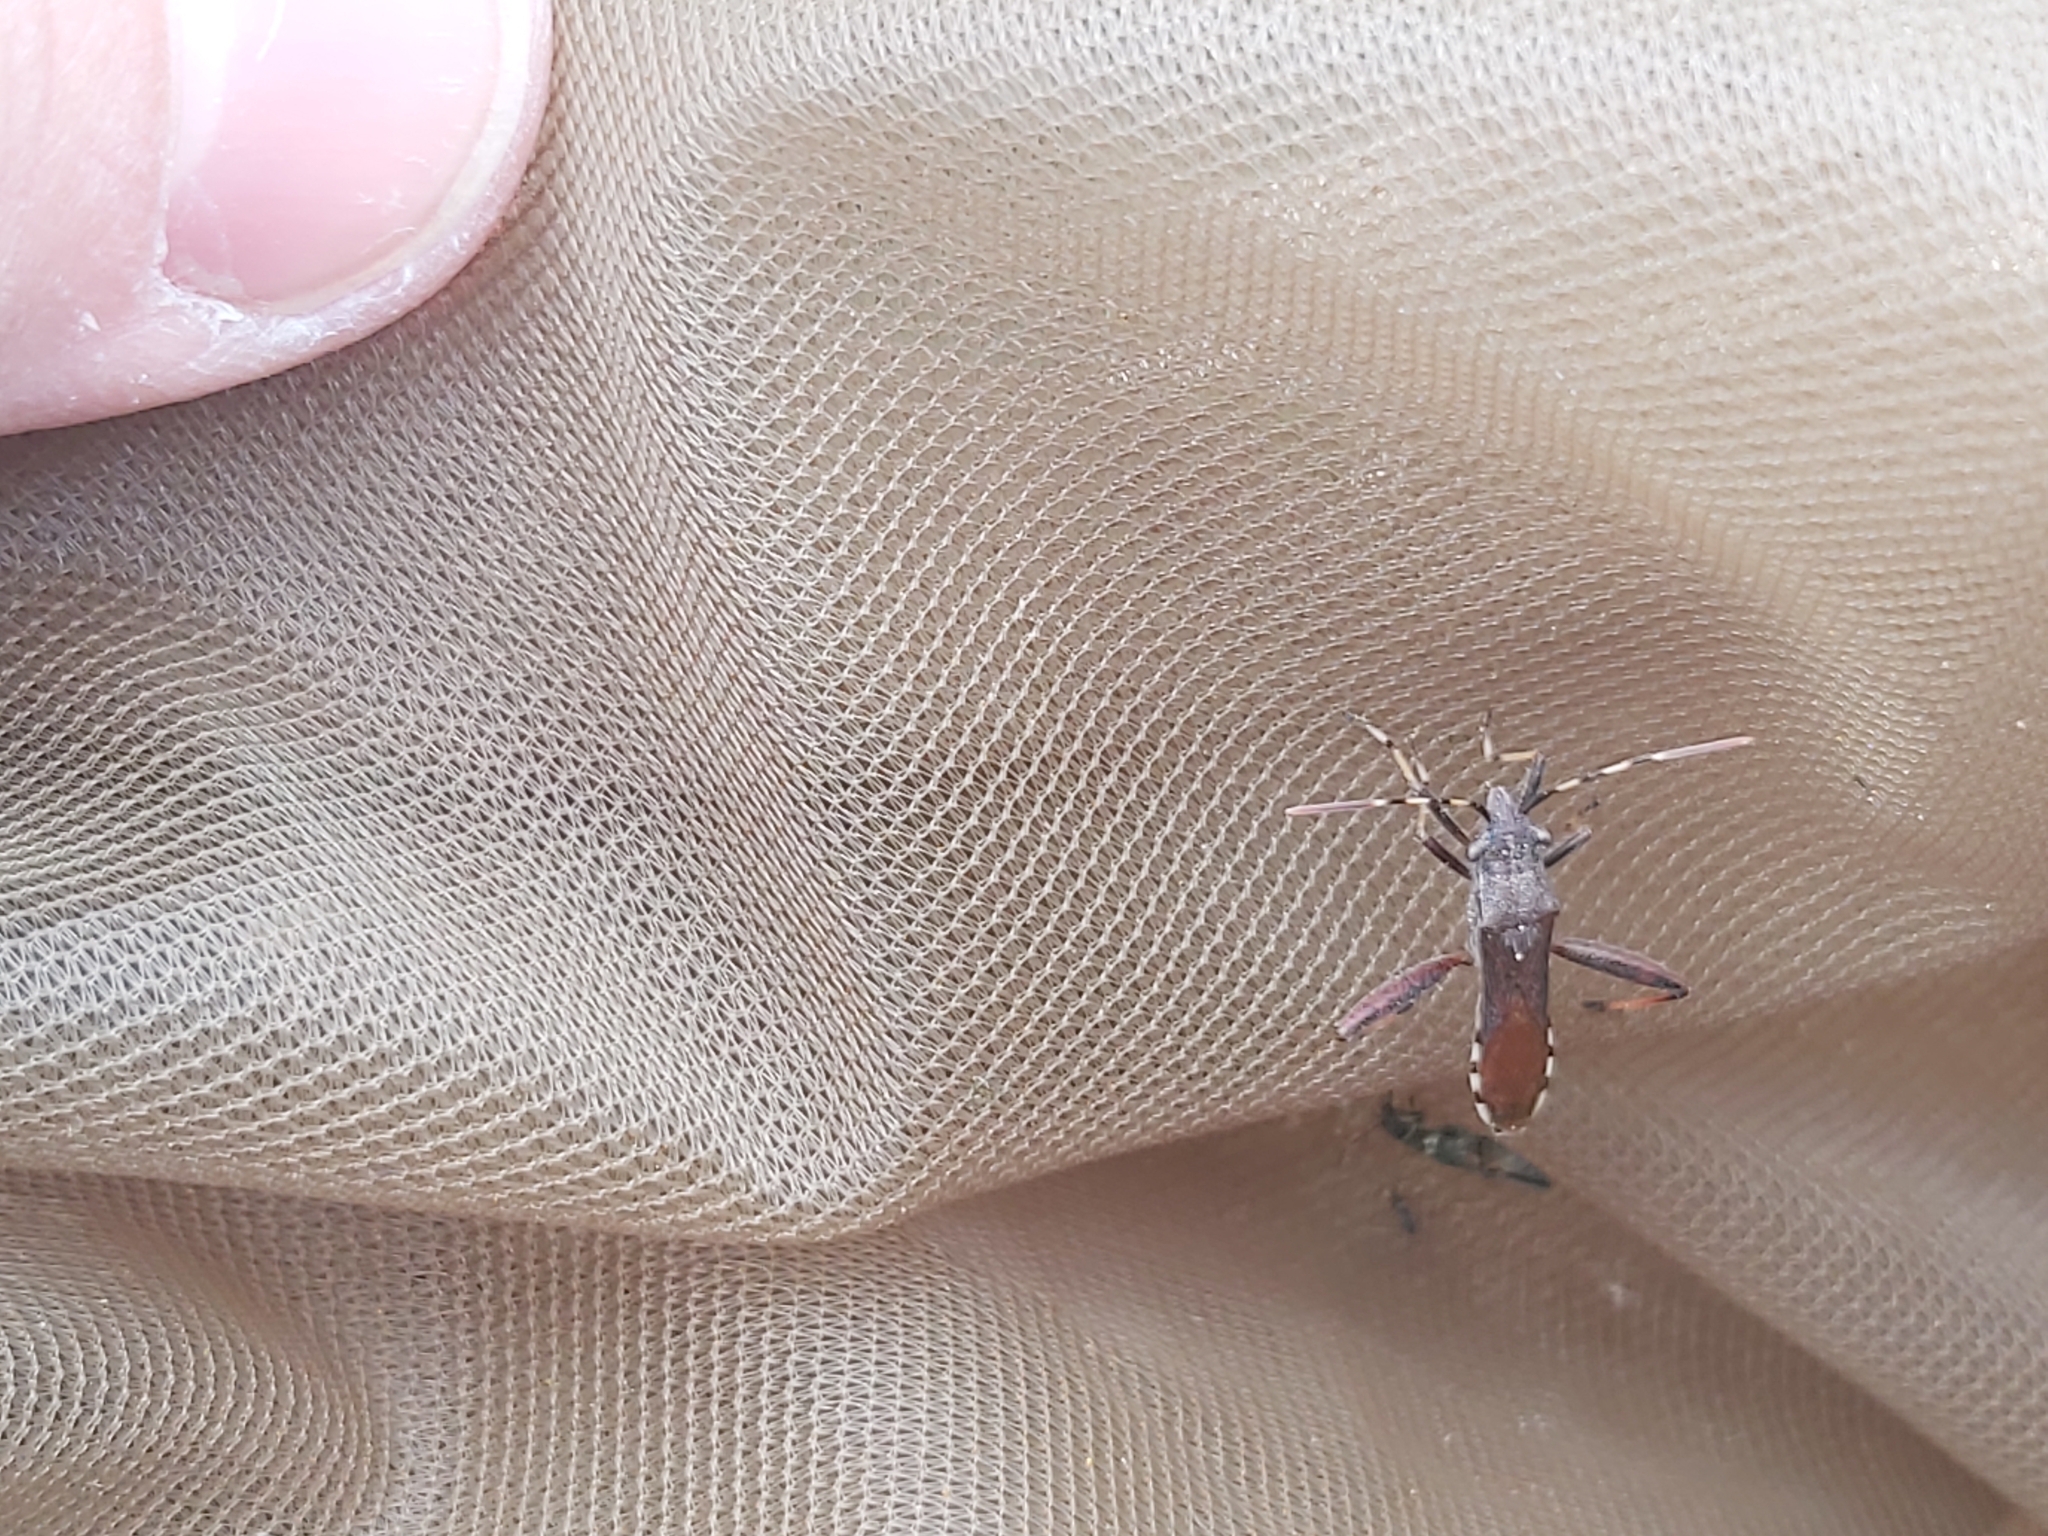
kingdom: Animalia
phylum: Arthropoda
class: Insecta
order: Hemiptera
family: Alydidae
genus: Camptopus
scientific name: Camptopus lateralis
